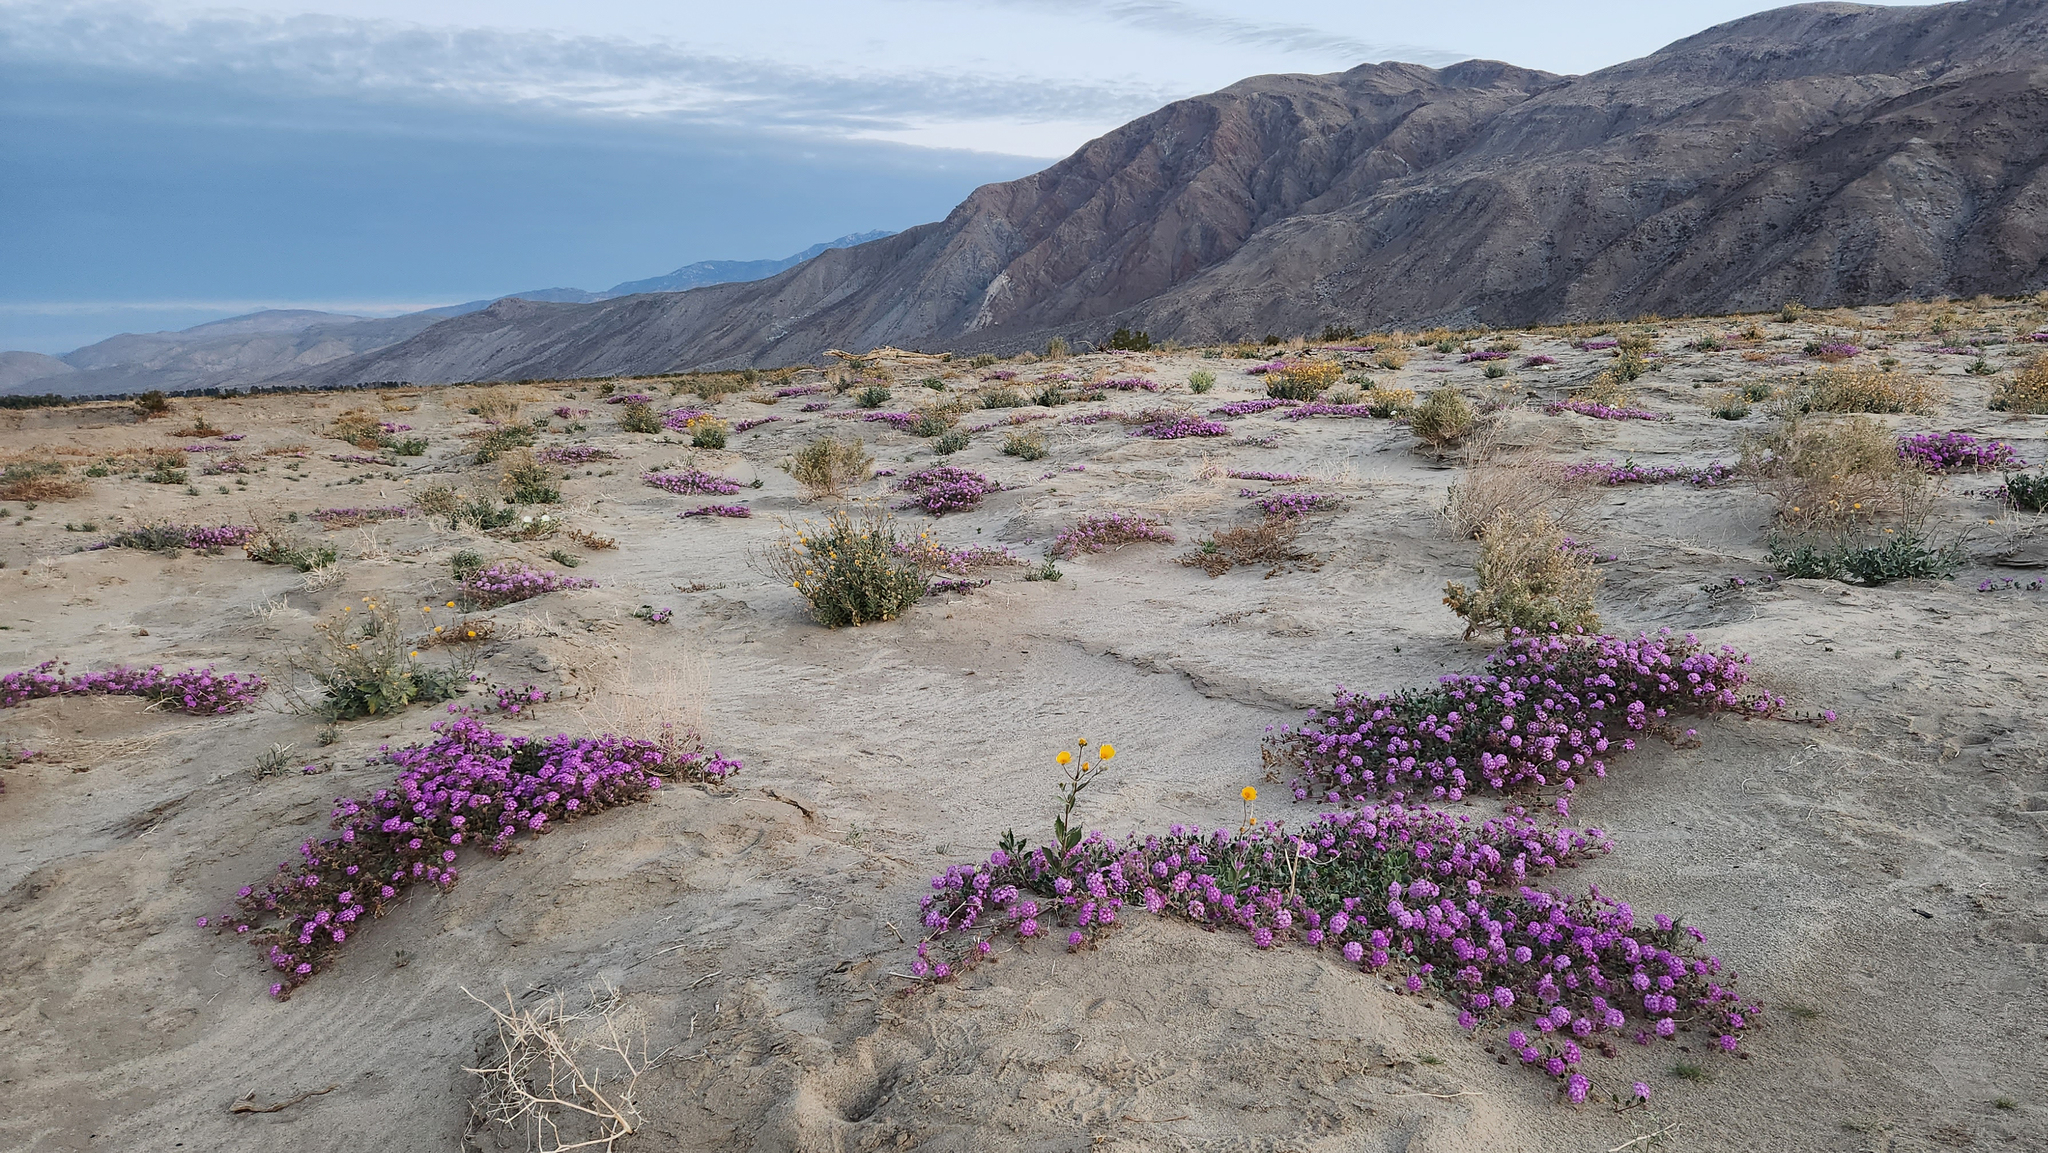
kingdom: Plantae
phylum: Tracheophyta
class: Magnoliopsida
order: Caryophyllales
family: Nyctaginaceae
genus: Abronia
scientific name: Abronia villosa
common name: Desert sand-verbena
